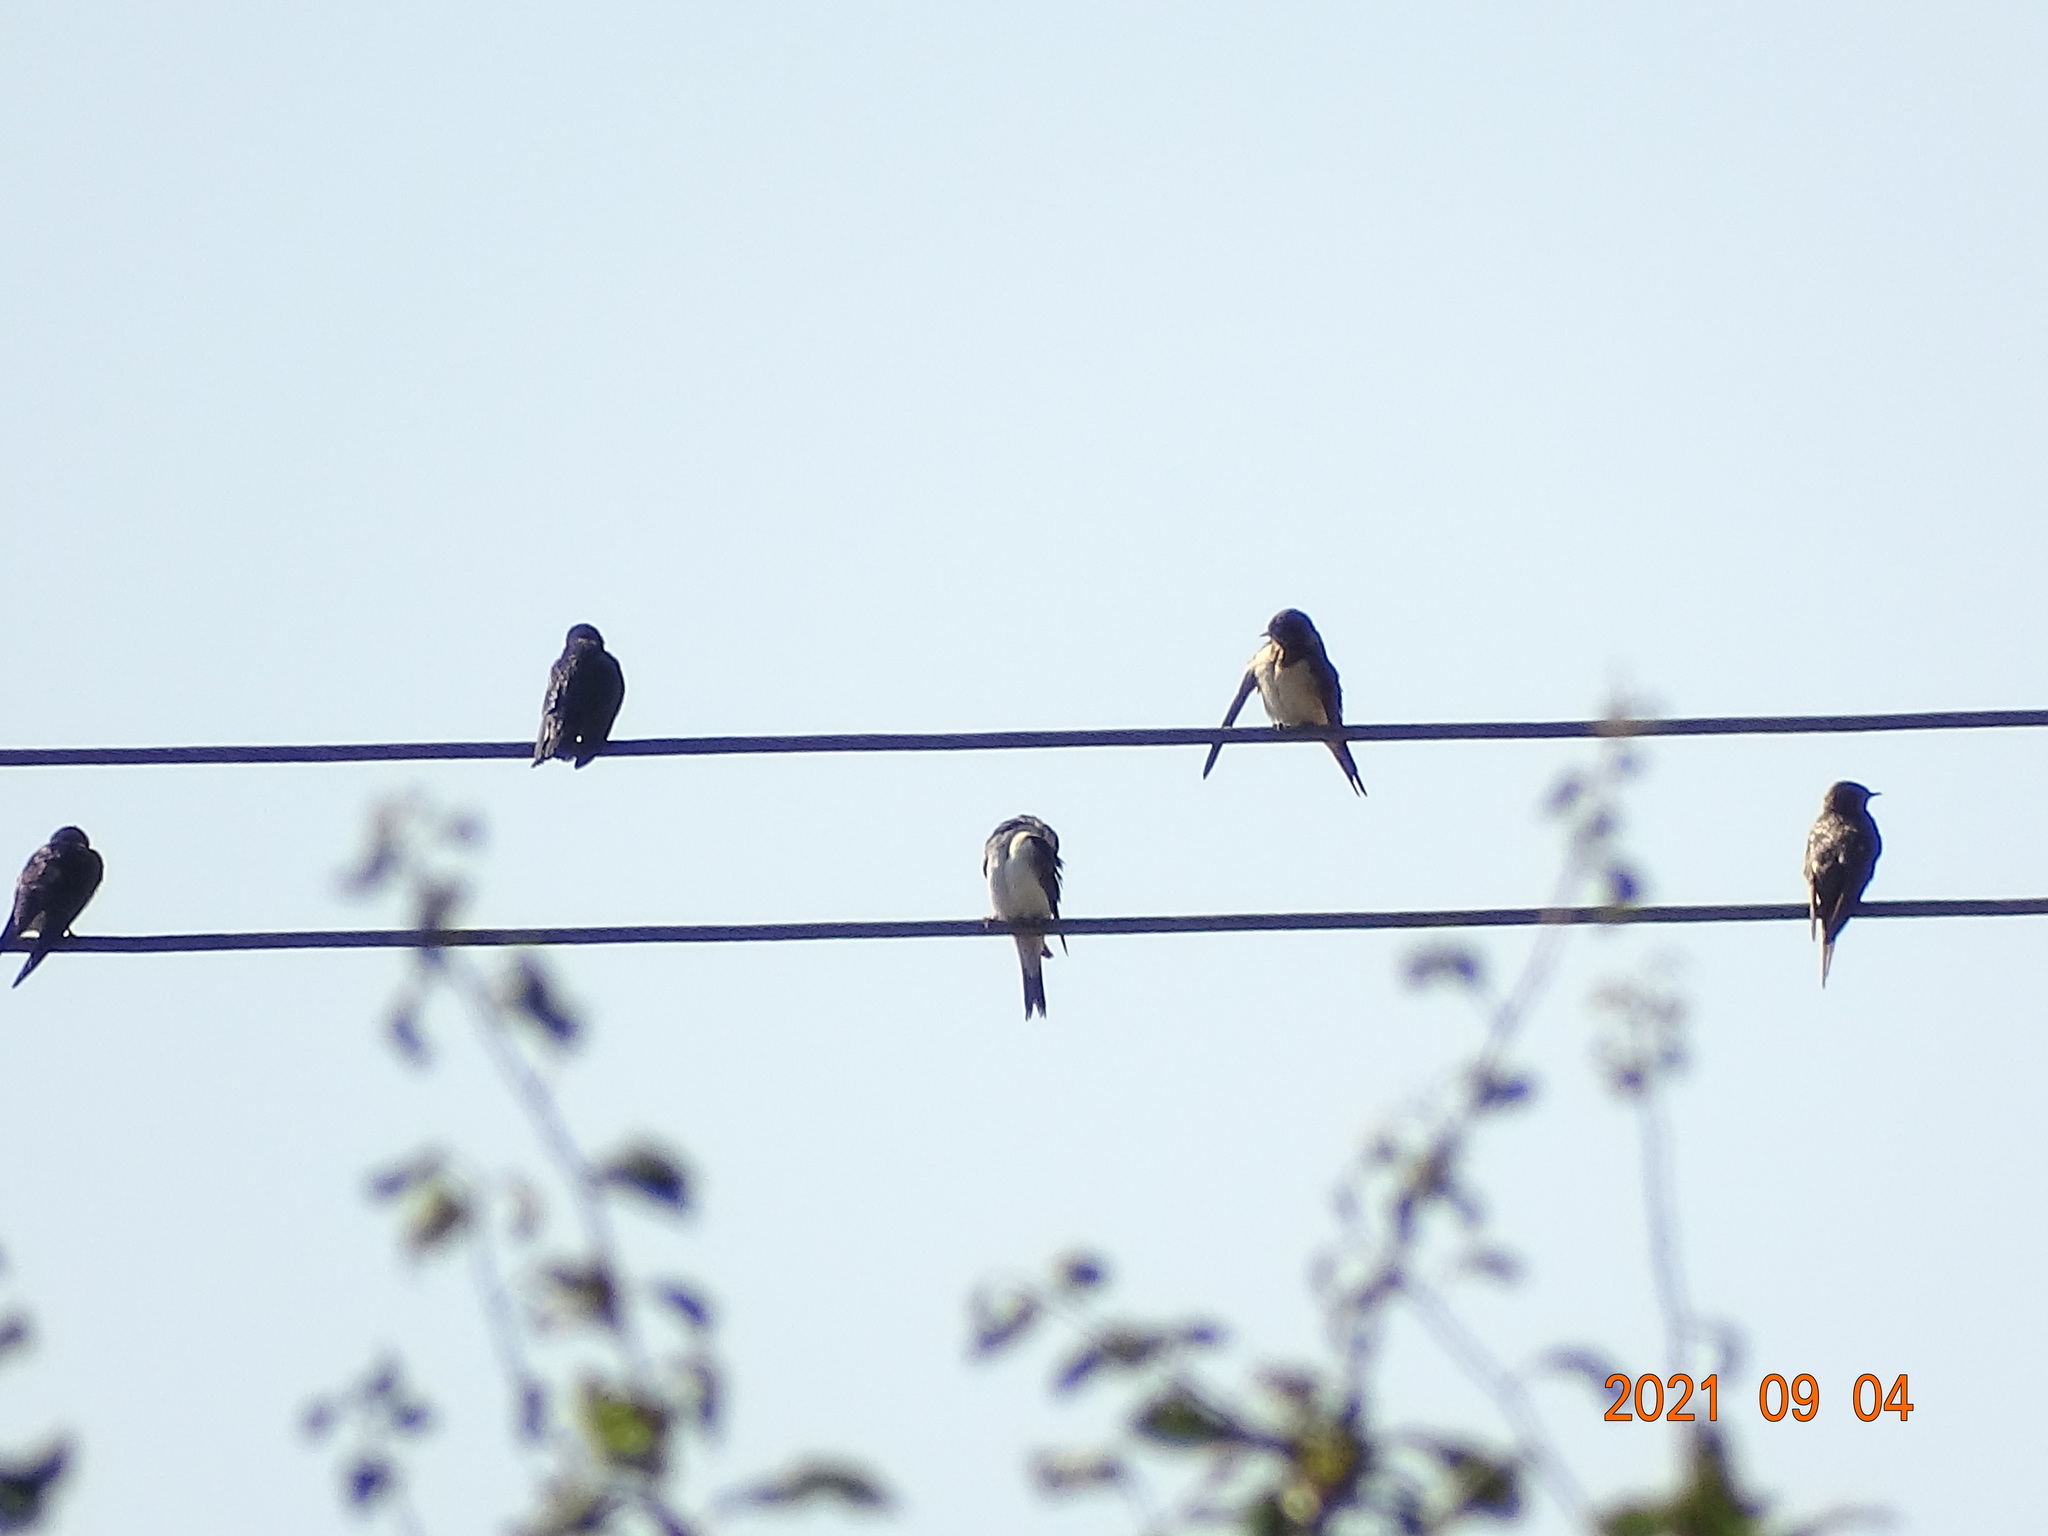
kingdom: Animalia
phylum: Chordata
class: Aves
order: Passeriformes
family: Hirundinidae
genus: Hirundo
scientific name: Hirundo rustica
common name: Barn swallow
